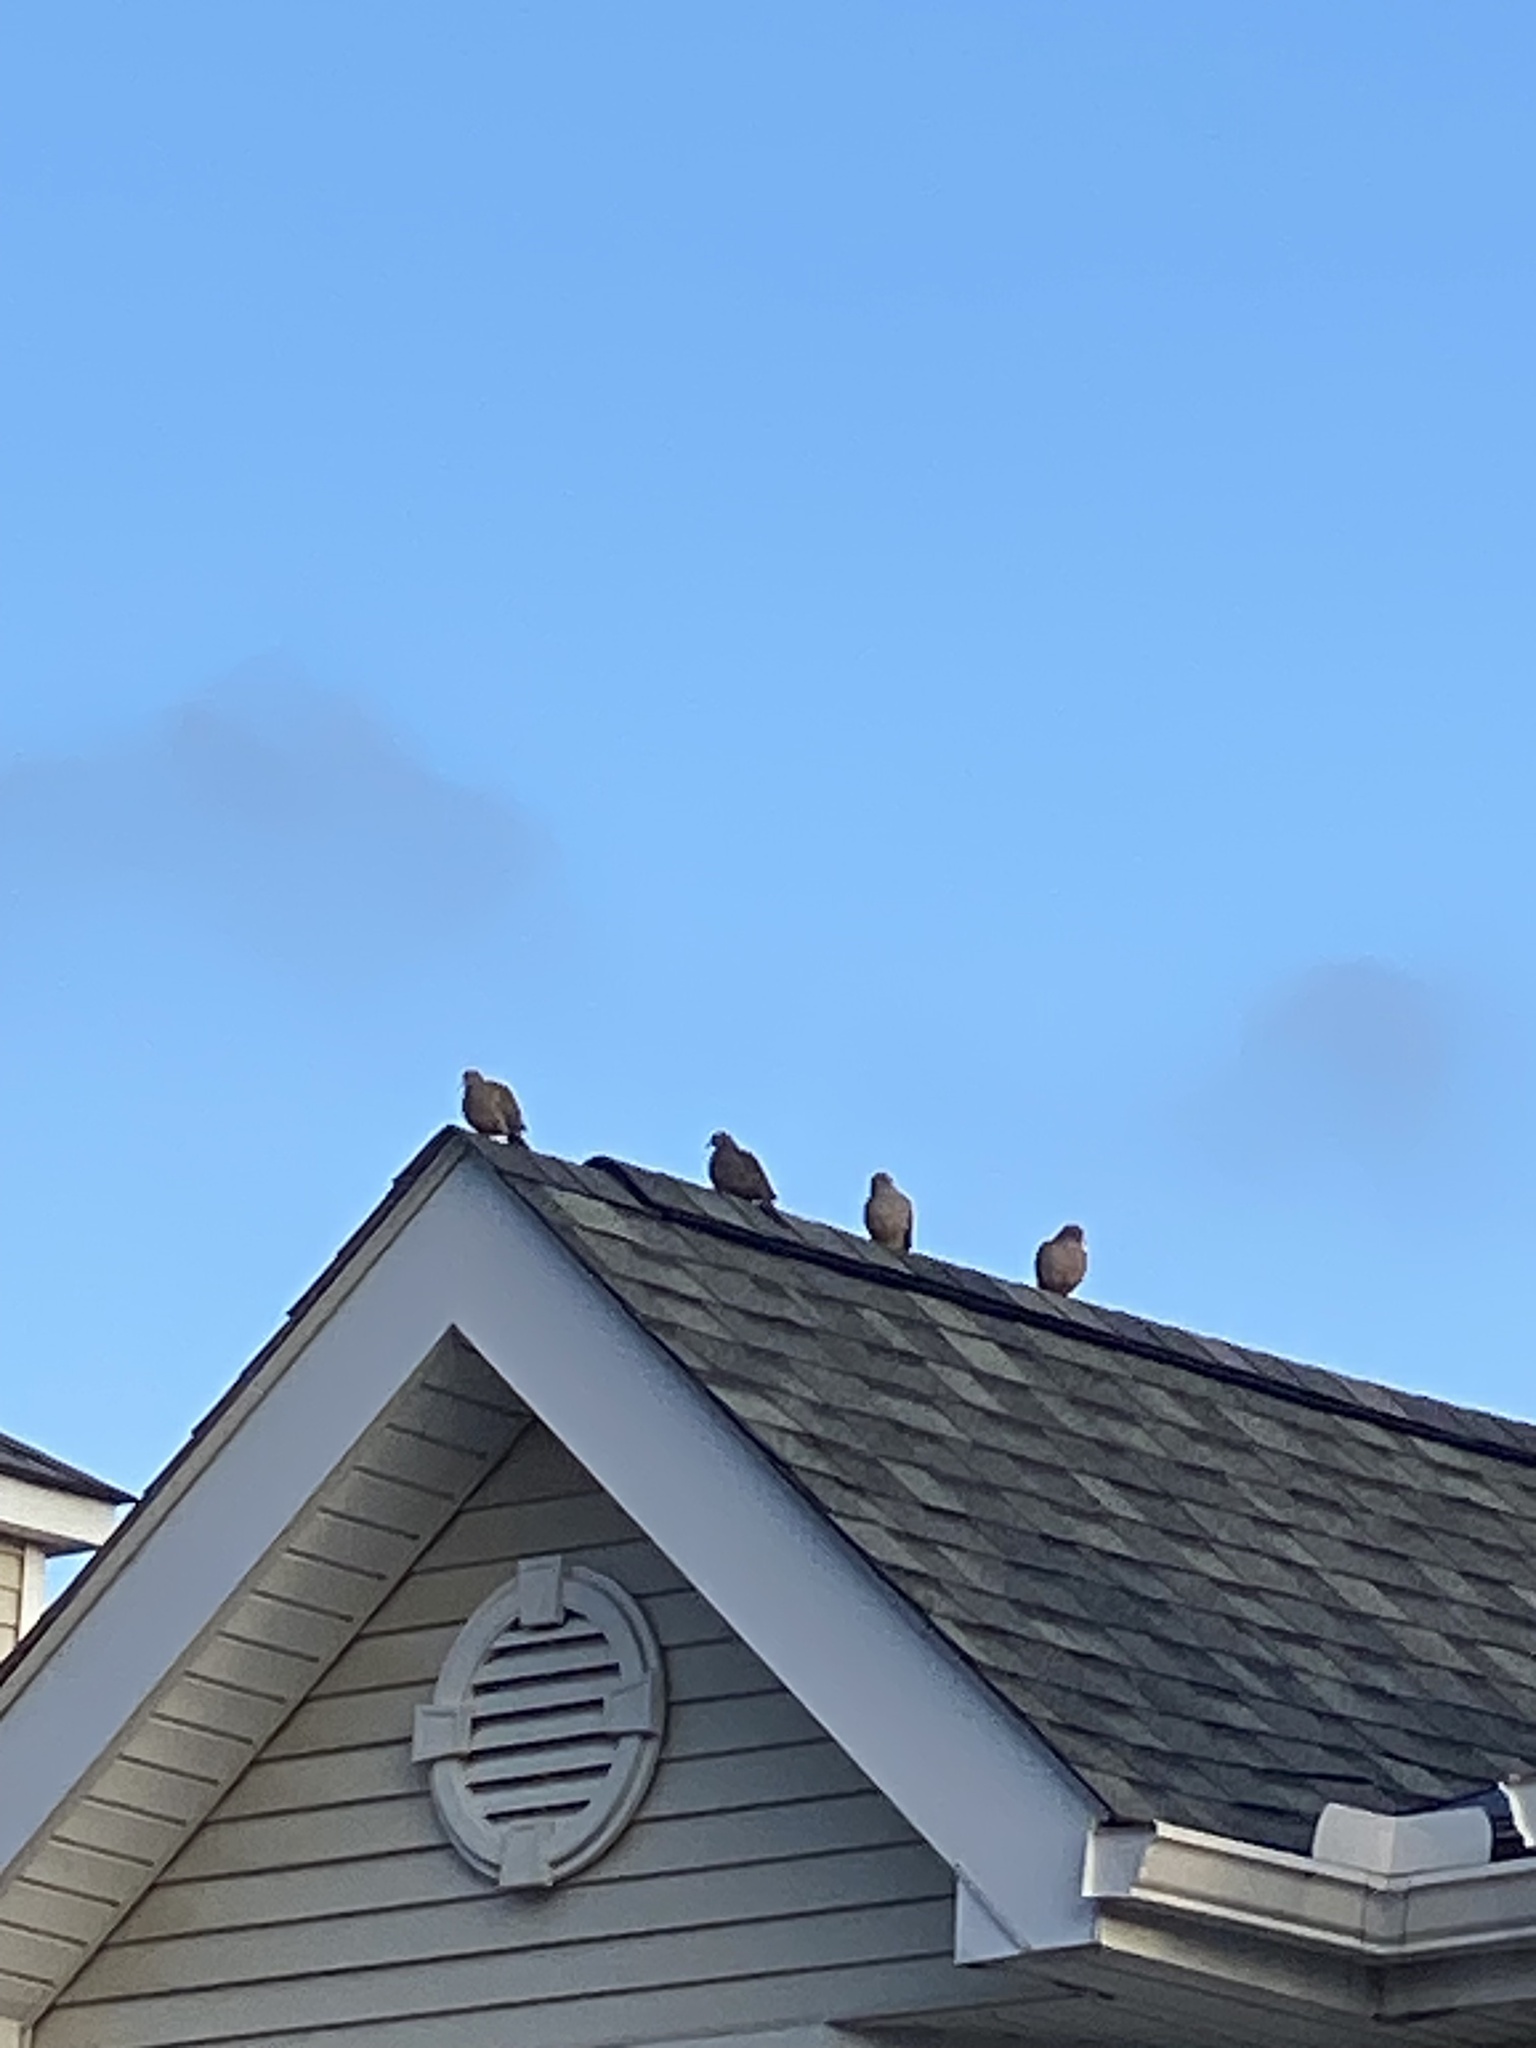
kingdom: Animalia
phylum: Chordata
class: Aves
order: Columbiformes
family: Columbidae
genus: Zenaida
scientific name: Zenaida macroura
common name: Mourning dove
